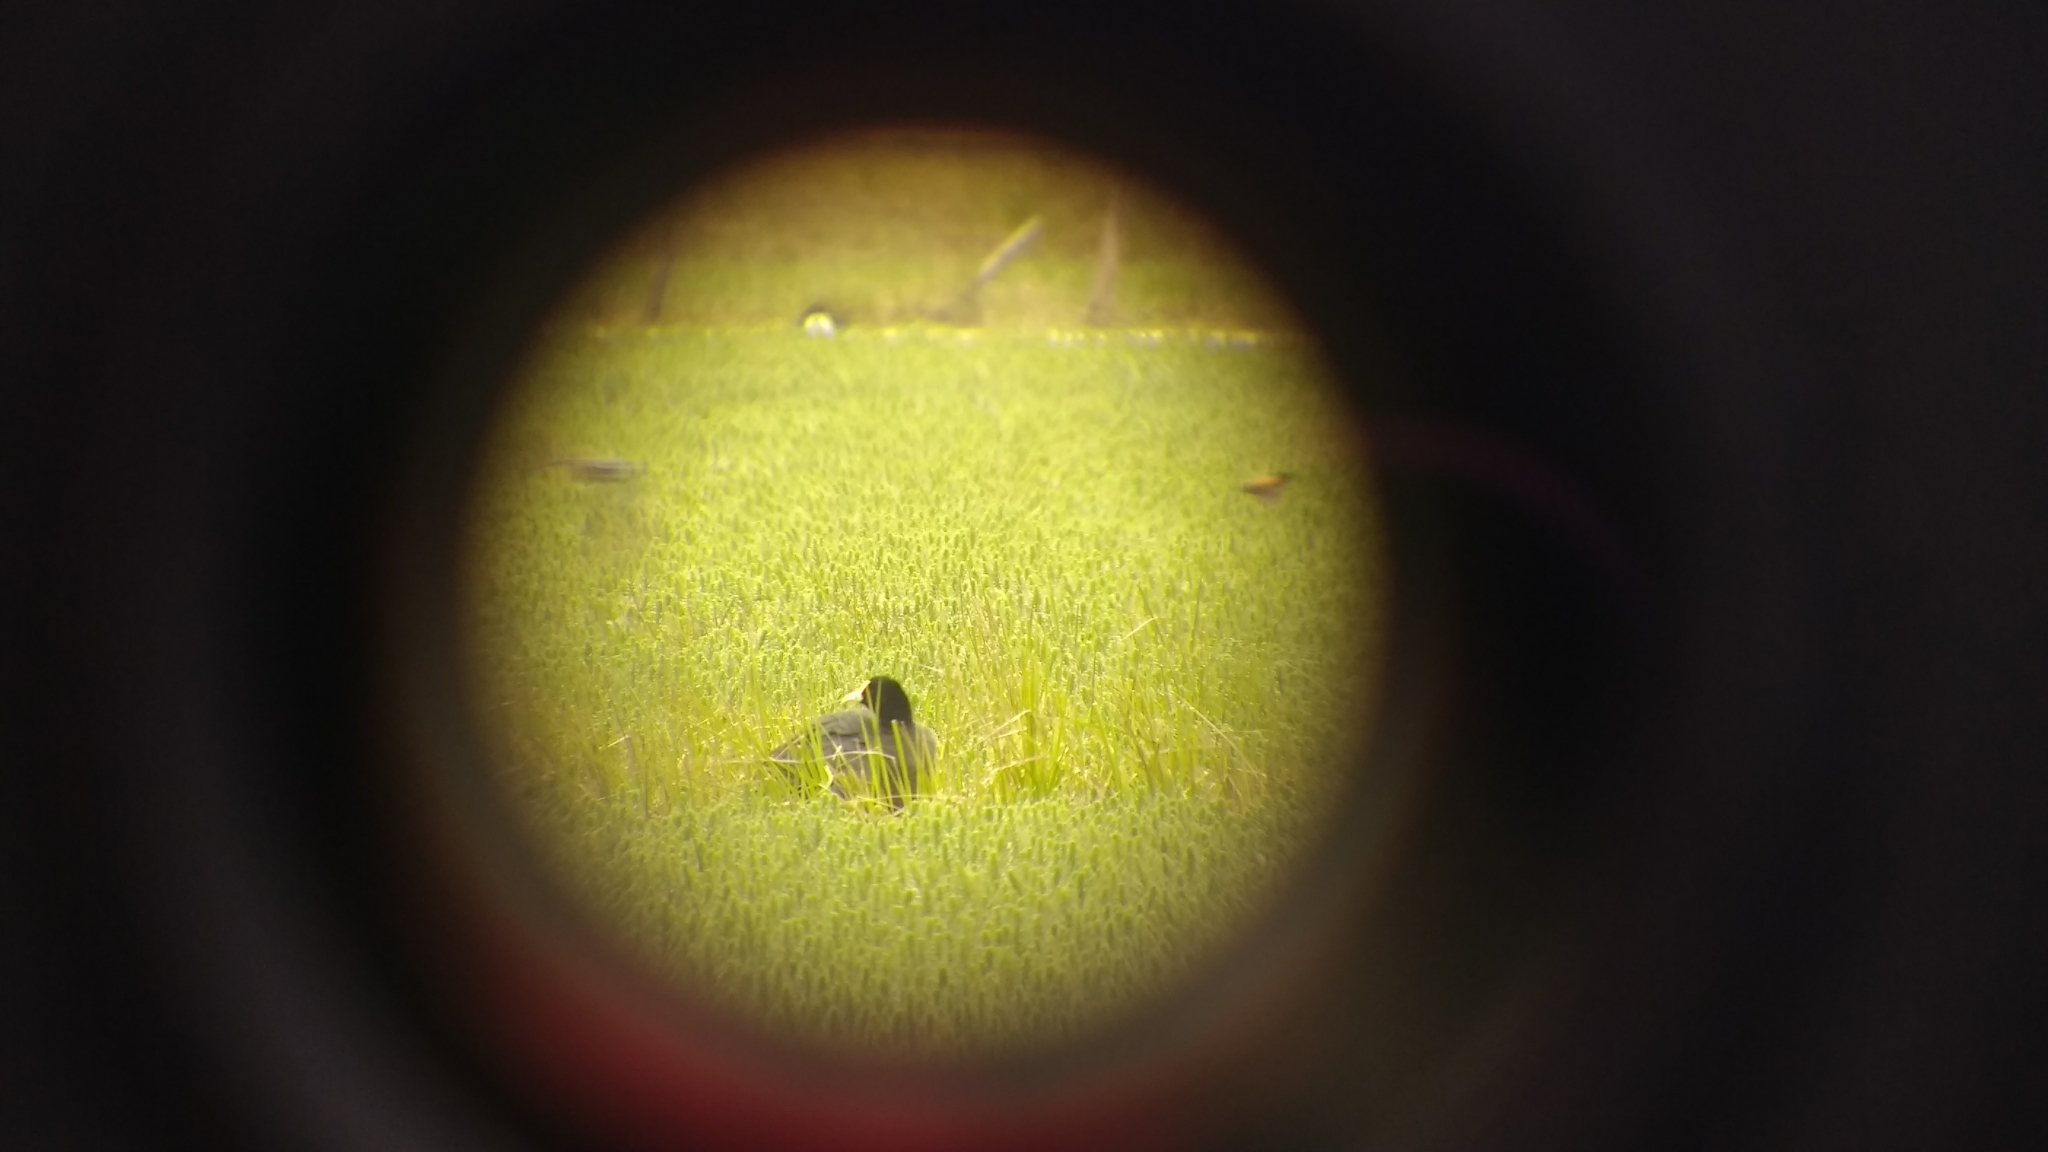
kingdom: Animalia
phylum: Chordata
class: Aves
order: Gruiformes
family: Rallidae
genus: Fulica
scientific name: Fulica leucoptera
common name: White-winged coot
